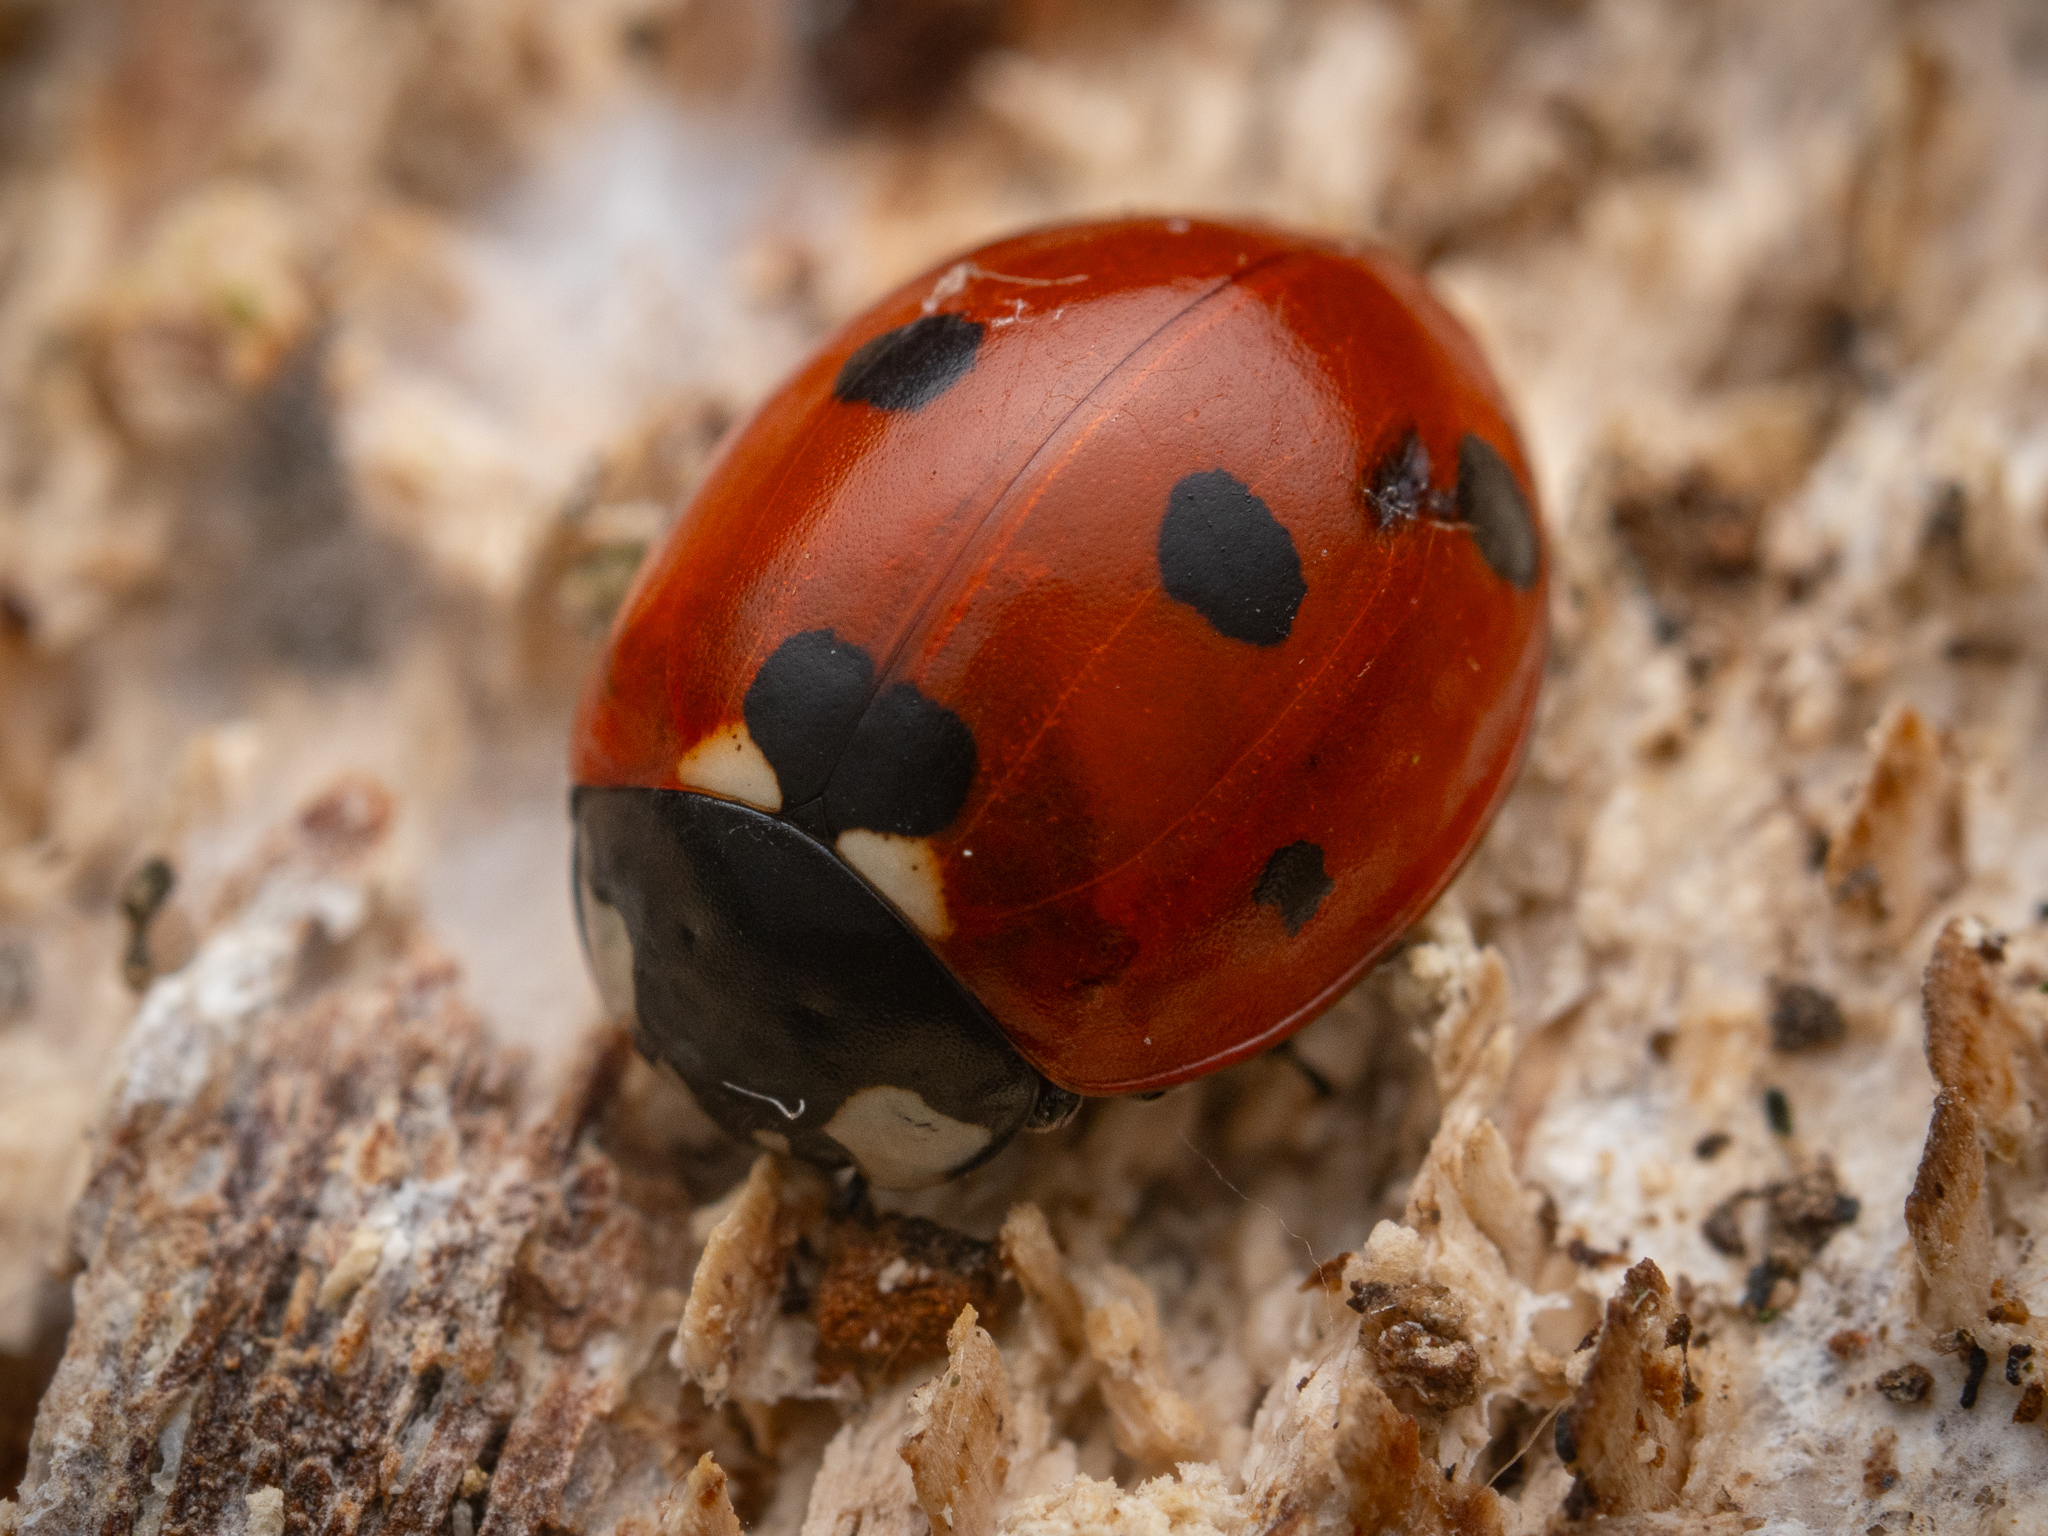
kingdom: Animalia
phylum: Arthropoda
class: Insecta
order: Coleoptera
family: Coccinellidae
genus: Coccinella
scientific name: Coccinella septempunctata
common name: Sevenspotted lady beetle
